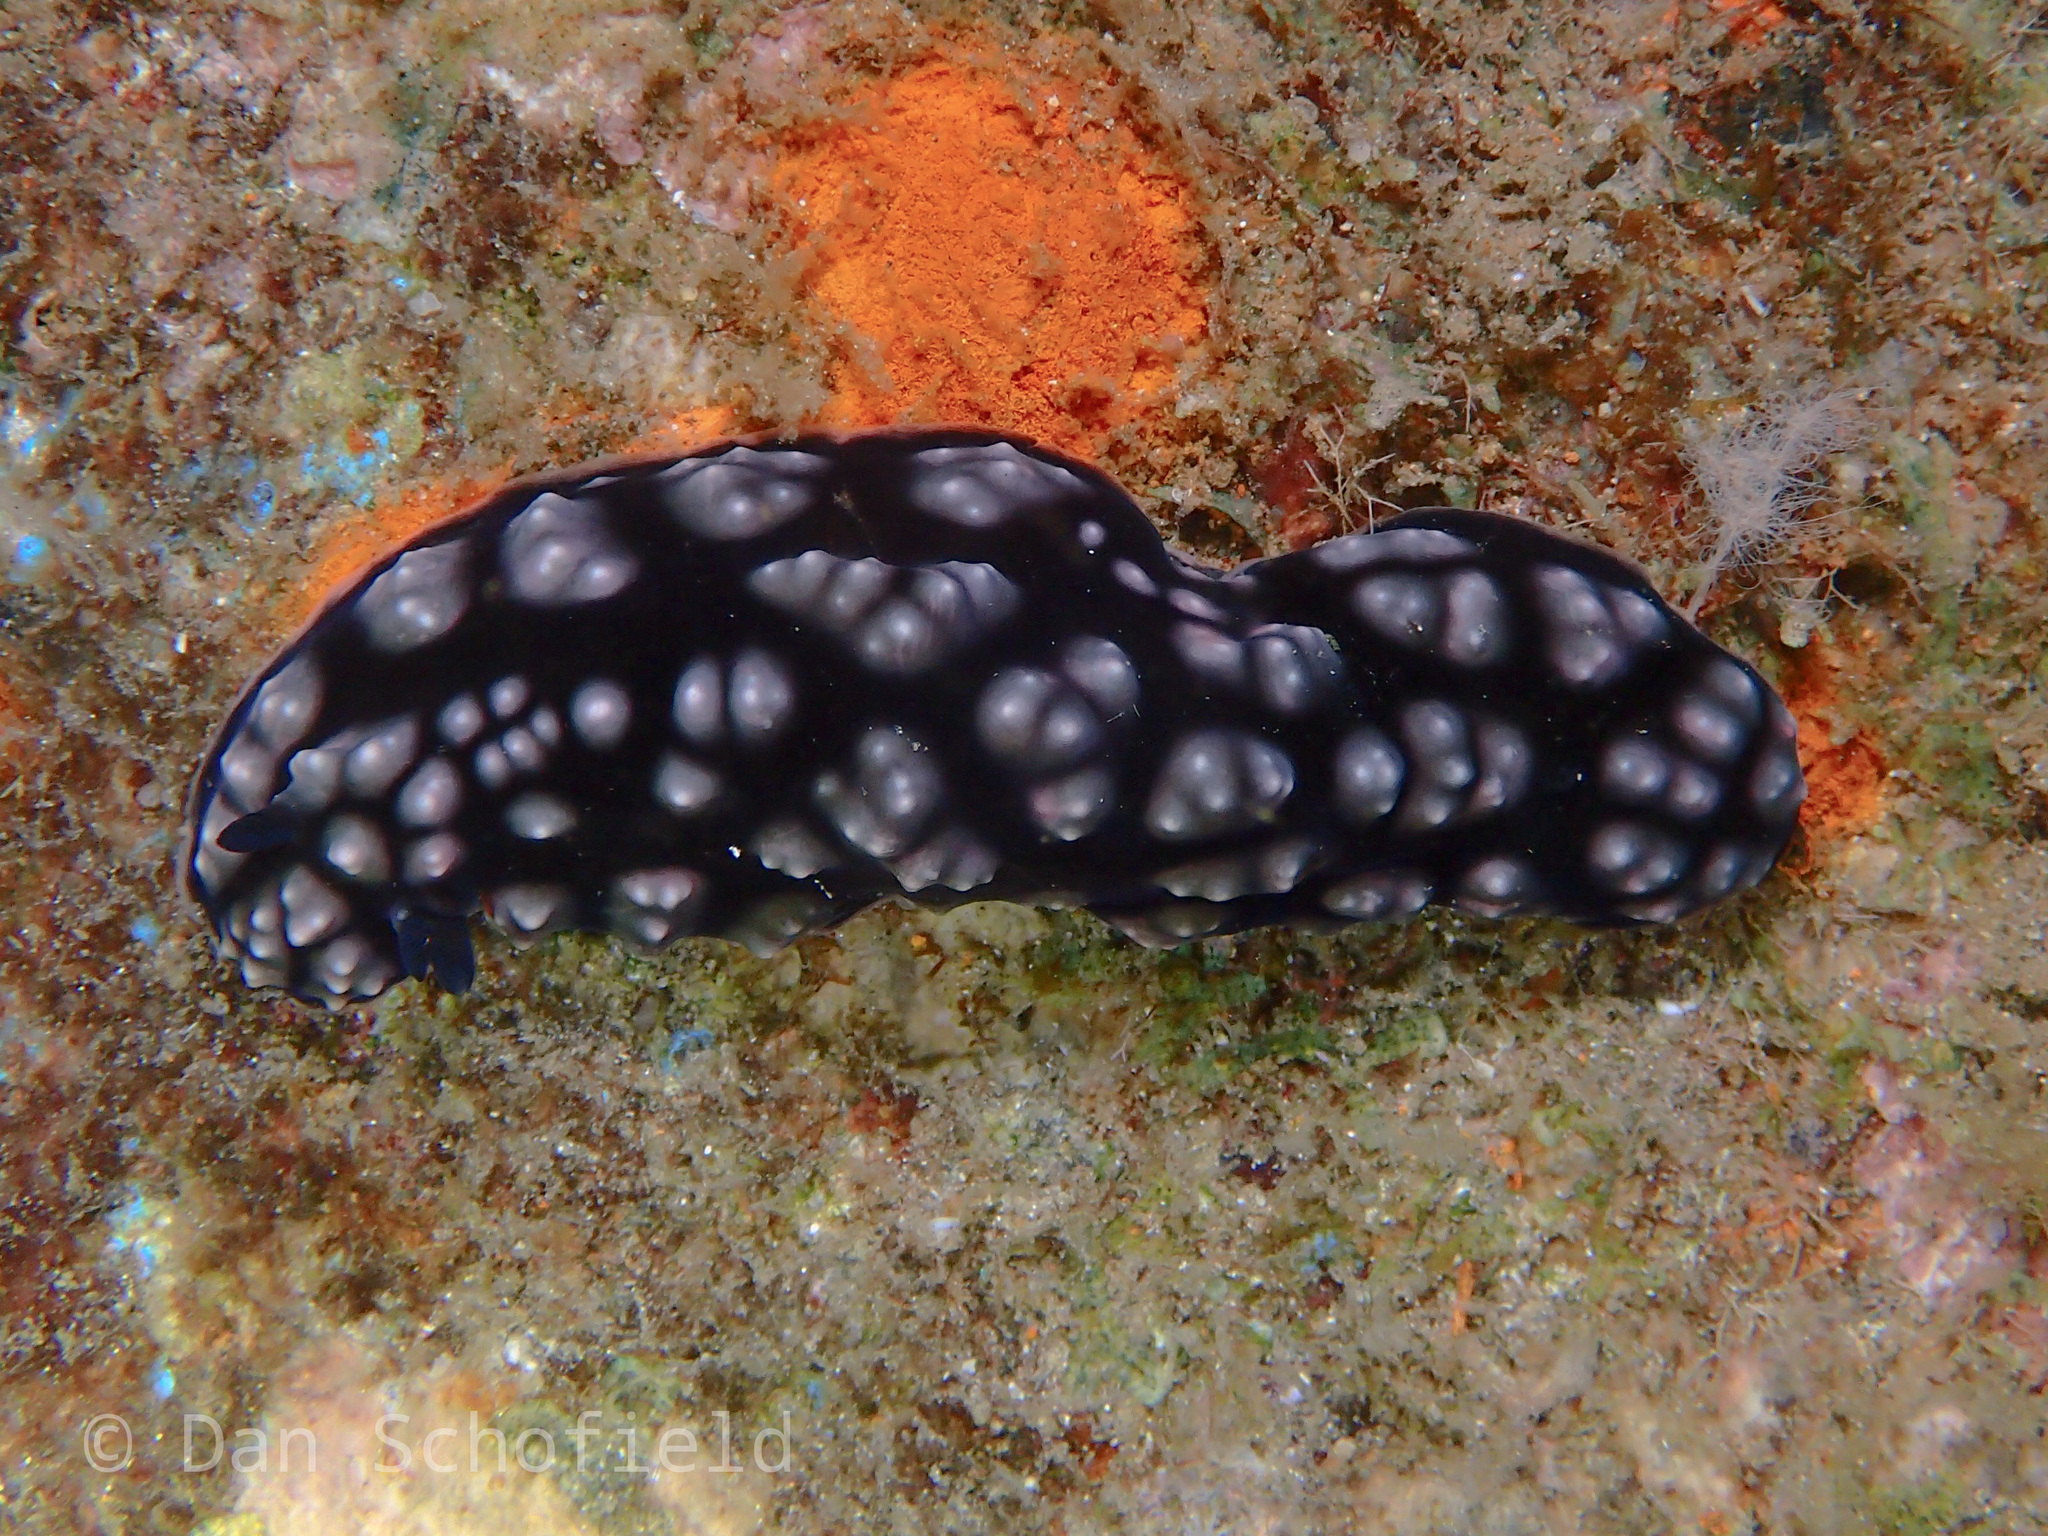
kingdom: Animalia
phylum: Mollusca
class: Gastropoda
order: Nudibranchia
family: Phyllidiidae
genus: Phyllidiella
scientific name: Phyllidiella pustulosa
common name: Pustular phyllidia
